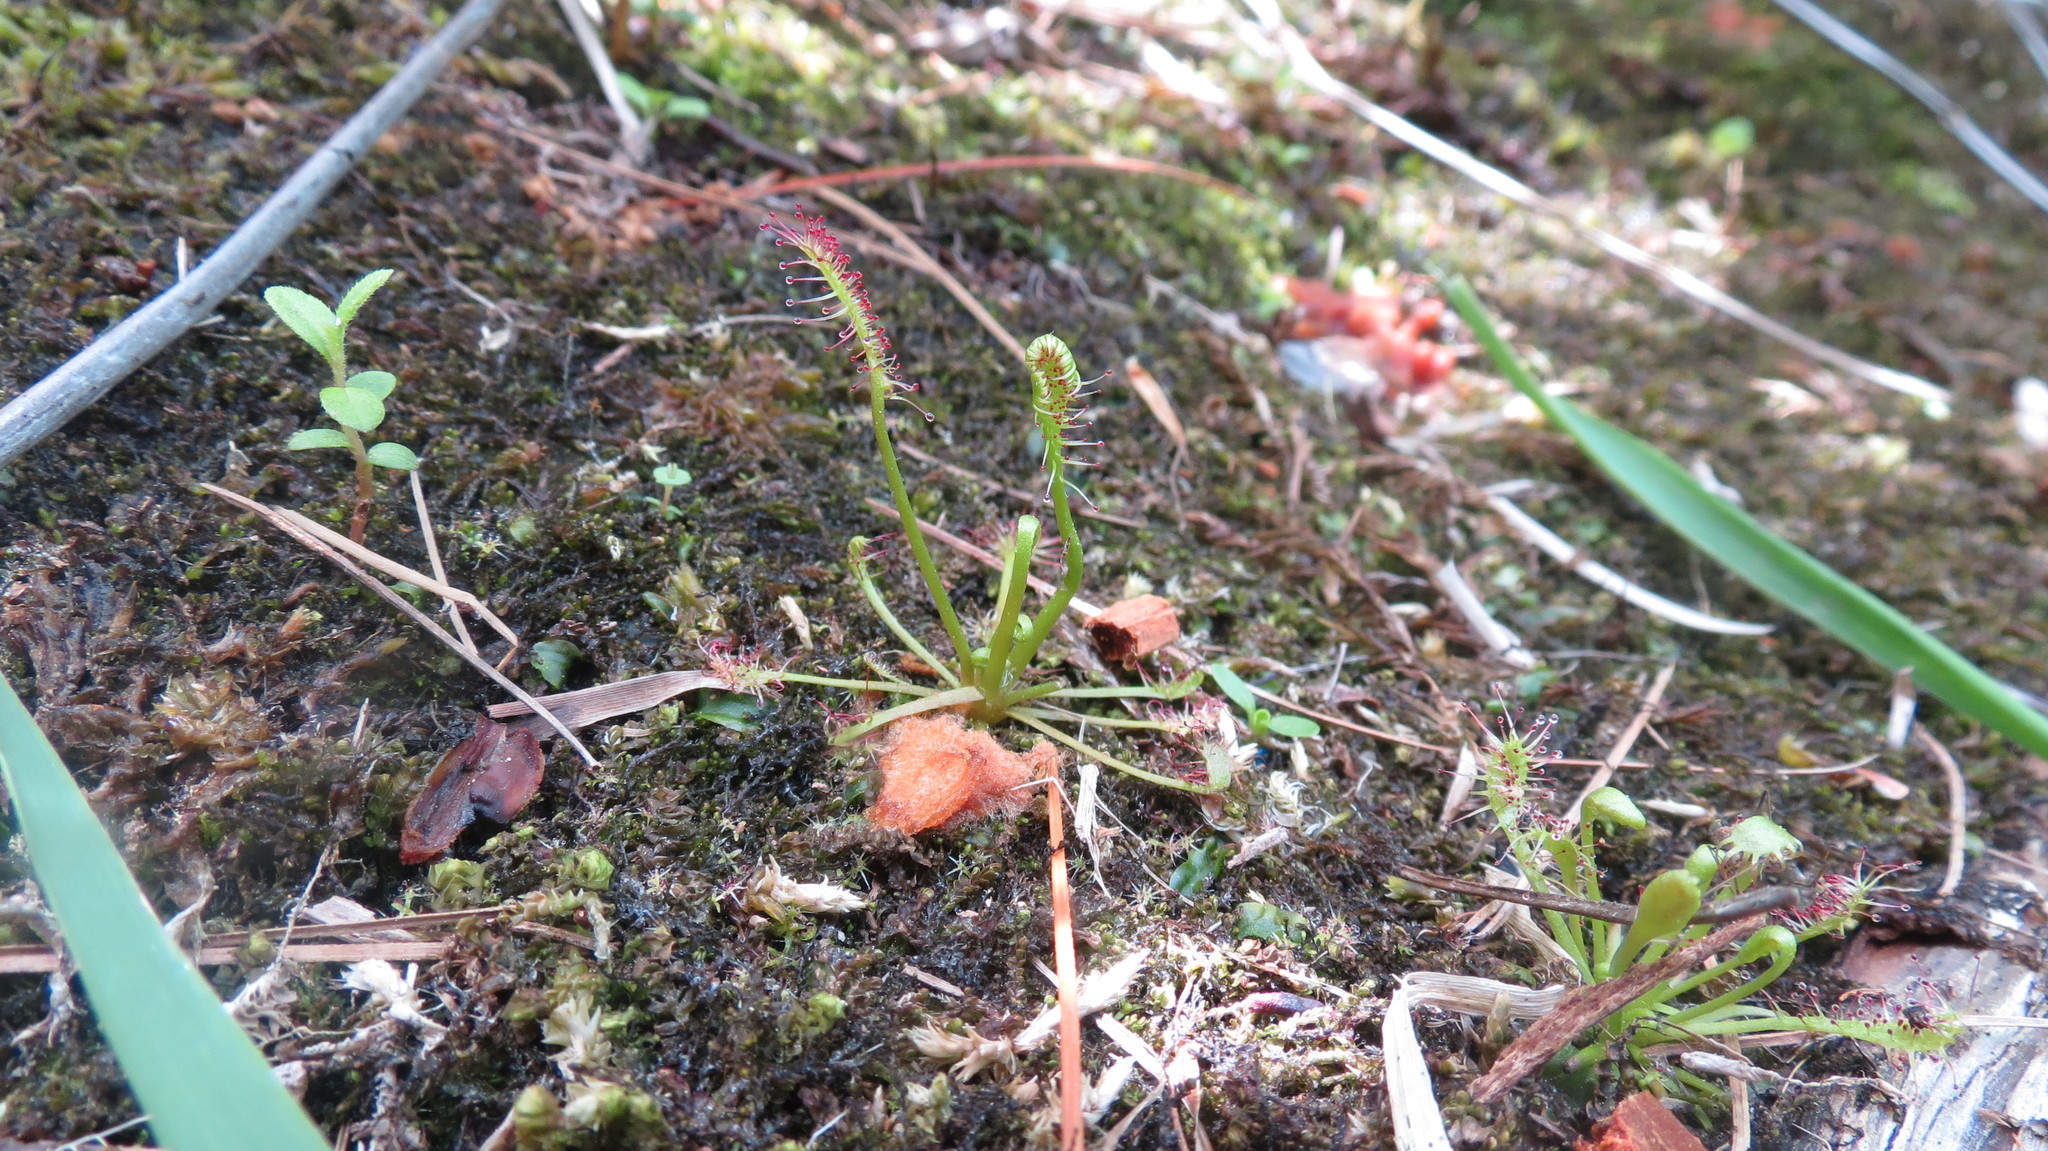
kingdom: Plantae
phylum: Tracheophyta
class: Magnoliopsida
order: Caryophyllales
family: Droseraceae
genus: Drosera
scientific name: Drosera intermedia
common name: Oblong-leaved sundew
